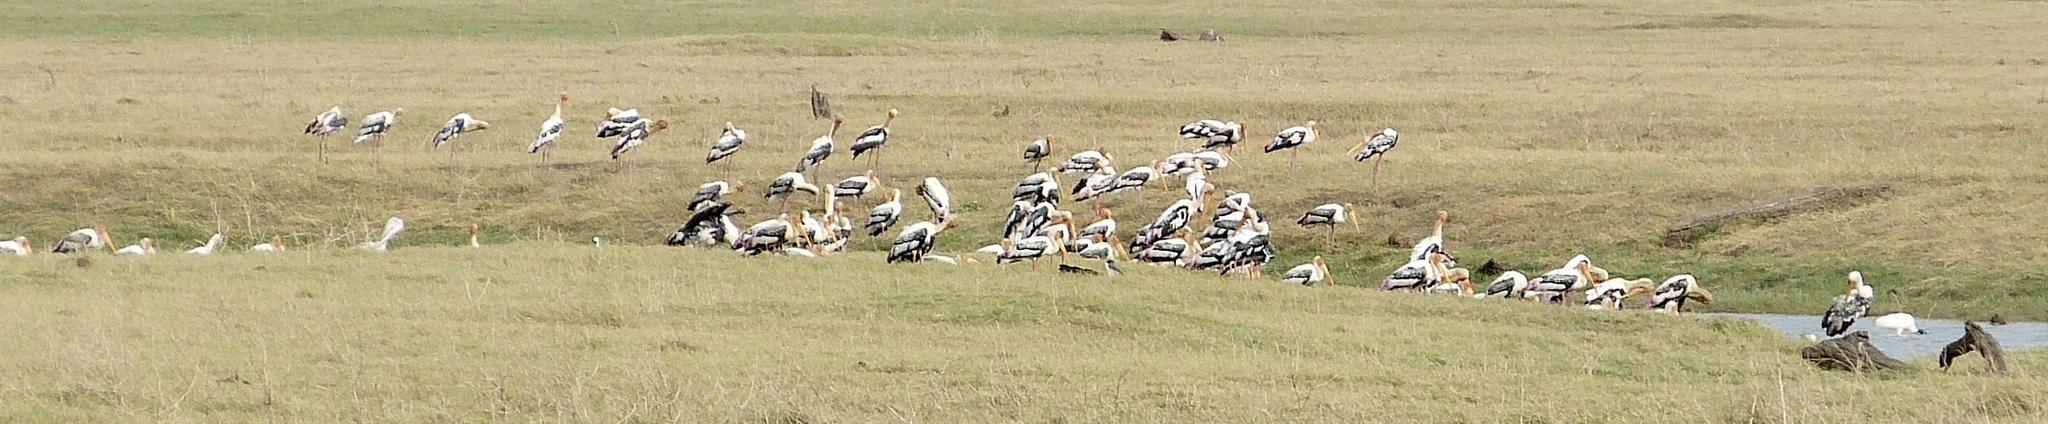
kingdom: Animalia
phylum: Chordata
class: Aves
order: Ciconiiformes
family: Ciconiidae
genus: Mycteria
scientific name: Mycteria leucocephala
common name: Painted stork
